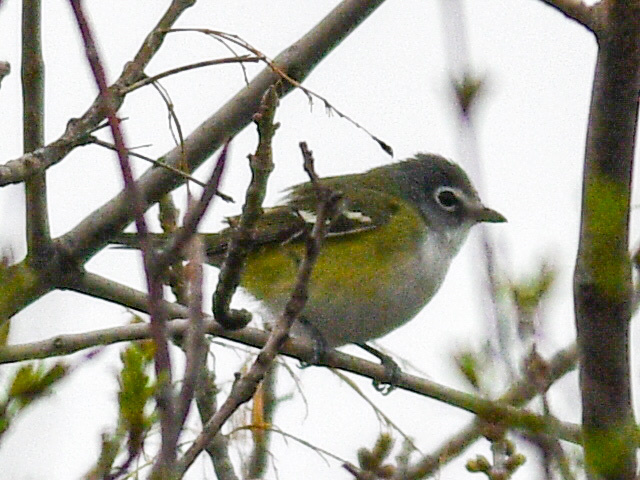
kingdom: Animalia
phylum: Chordata
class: Aves
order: Passeriformes
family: Vireonidae
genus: Vireo
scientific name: Vireo solitarius
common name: Blue-headed vireo
